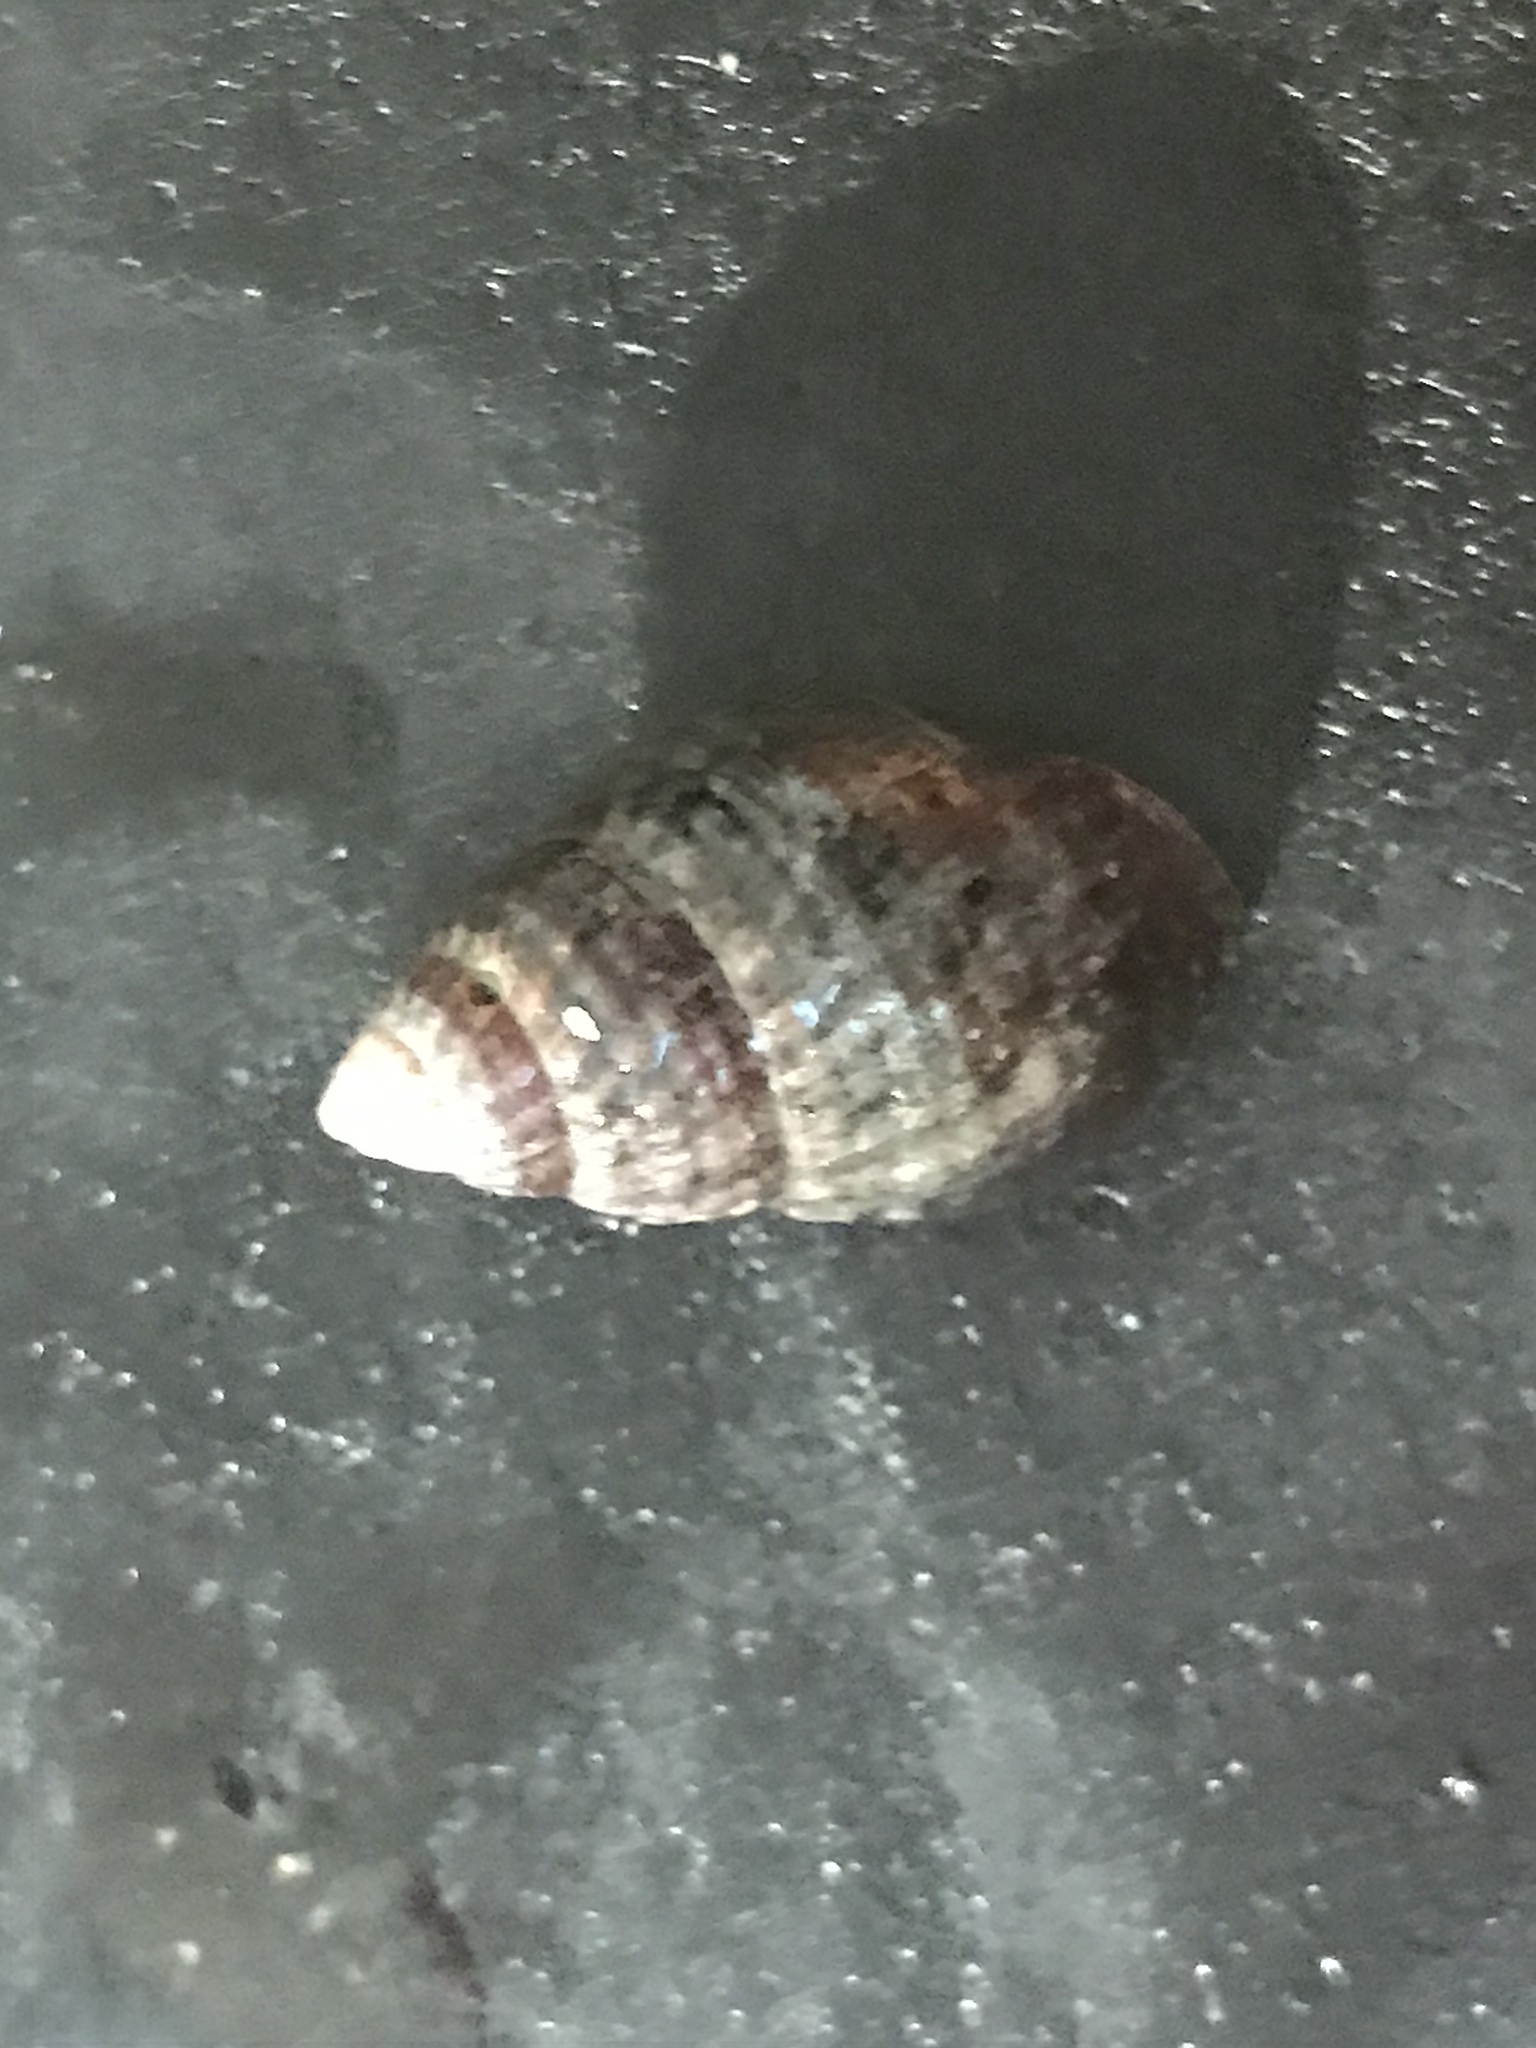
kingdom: Animalia
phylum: Mollusca
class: Gastropoda
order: Neogastropoda
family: Nassariidae
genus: Ilyanassa
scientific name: Ilyanassa obsoleta
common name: Eastern mudsnail
